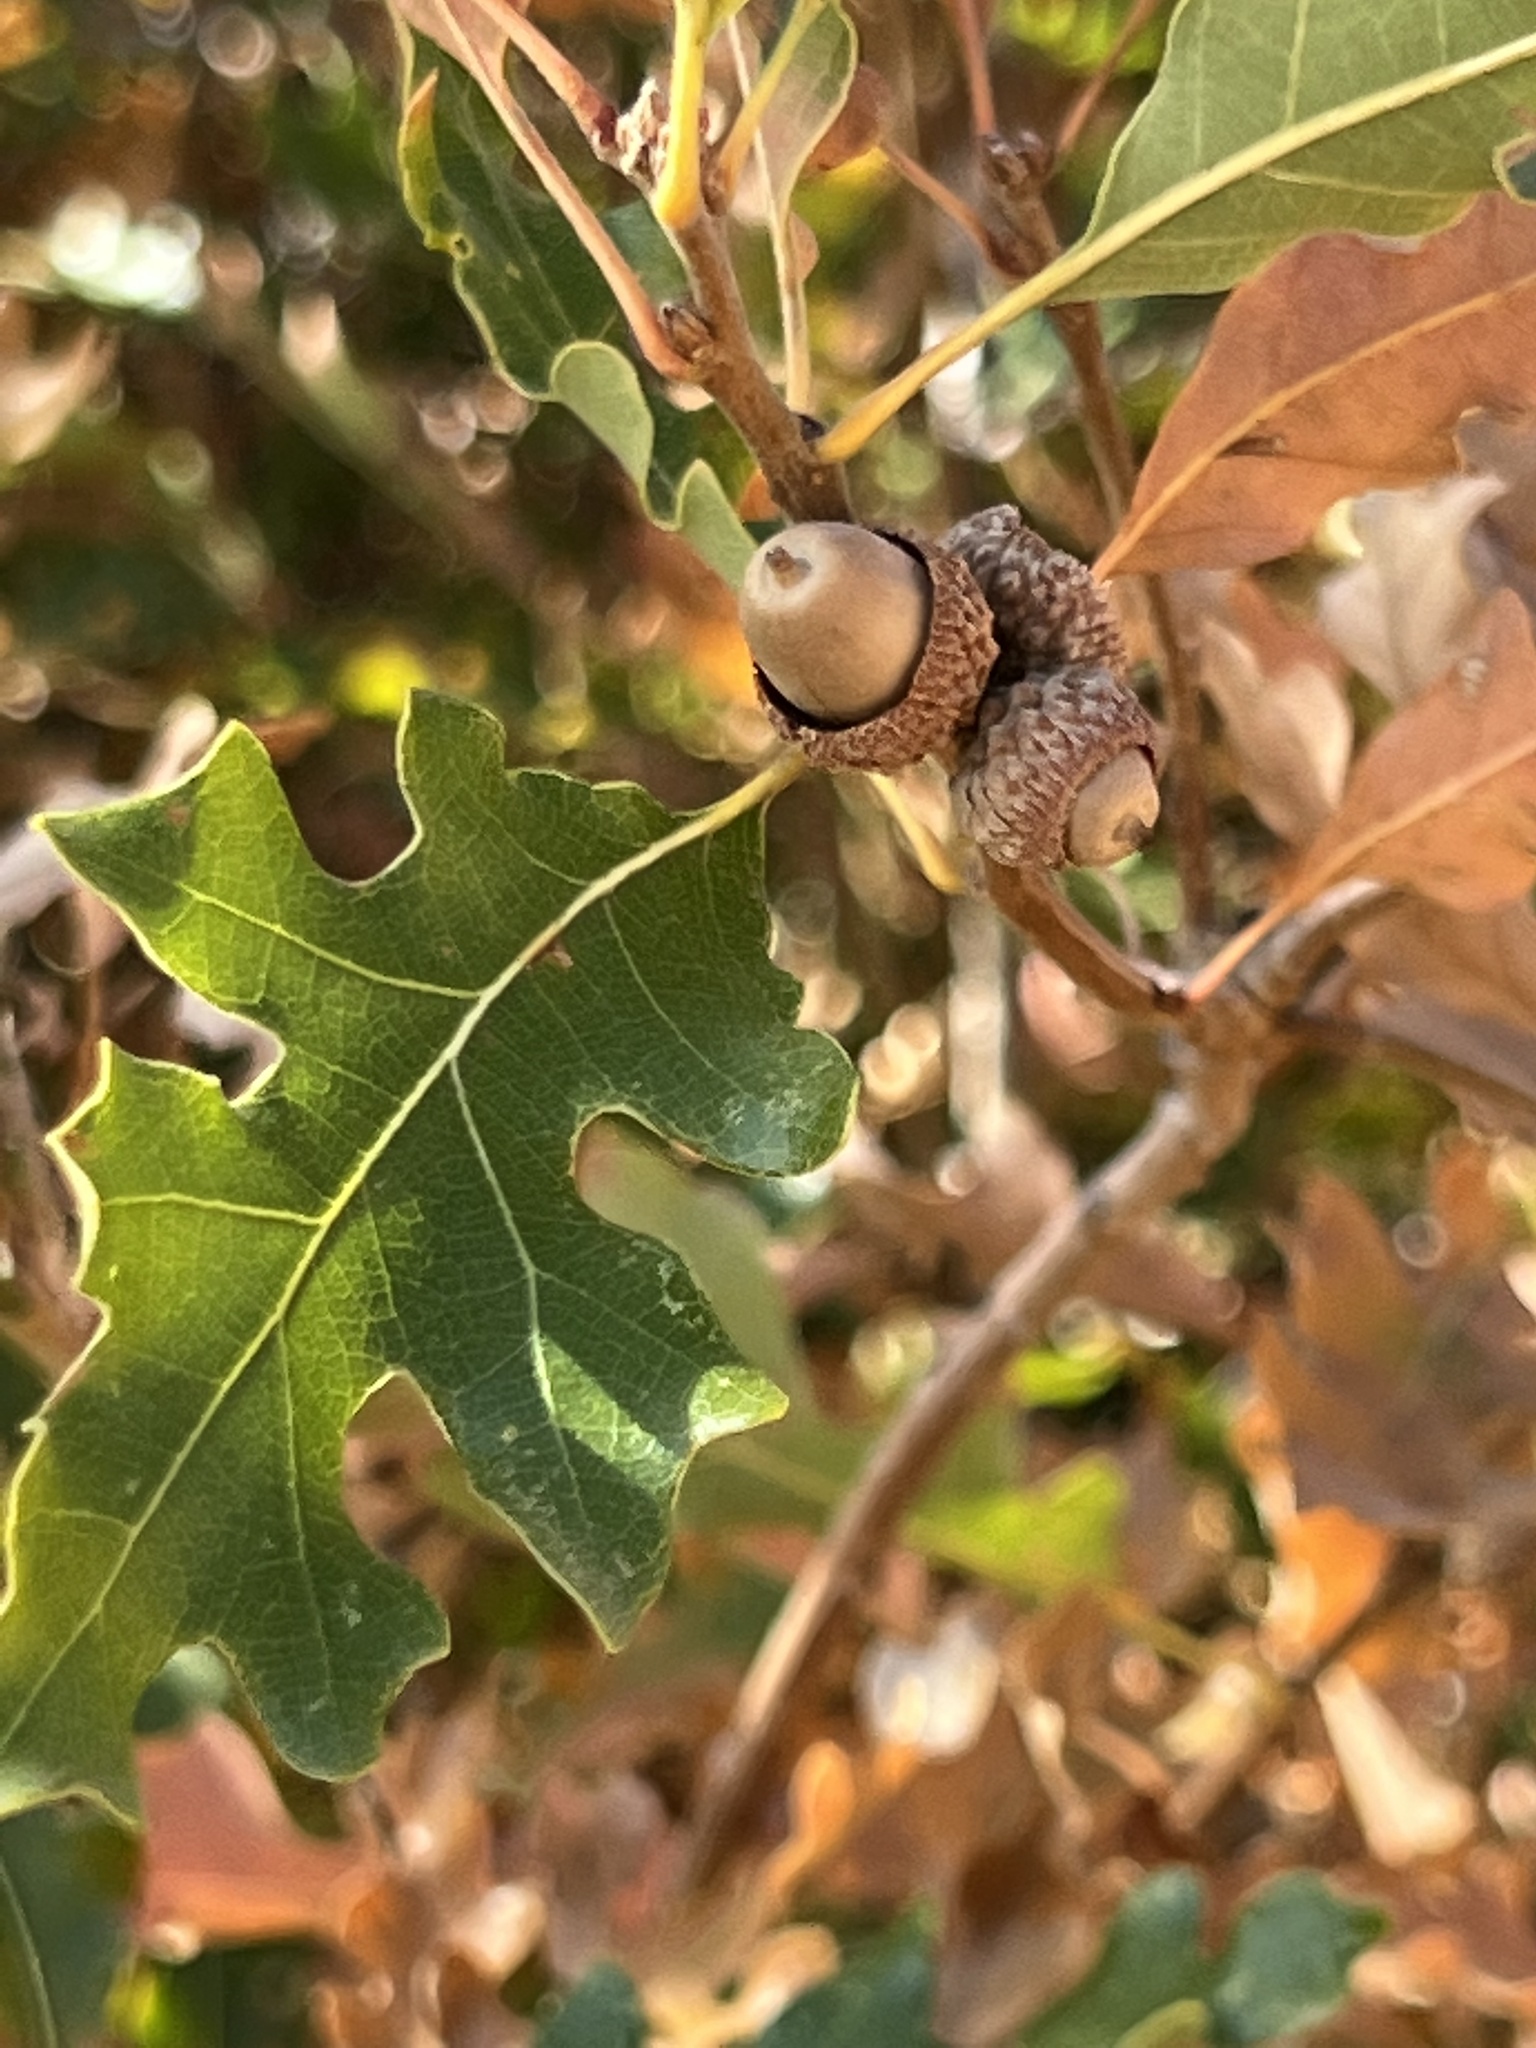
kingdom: Plantae
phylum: Tracheophyta
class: Magnoliopsida
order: Fagales
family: Fagaceae
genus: Quercus
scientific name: Quercus gambelii
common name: Gambel oak
